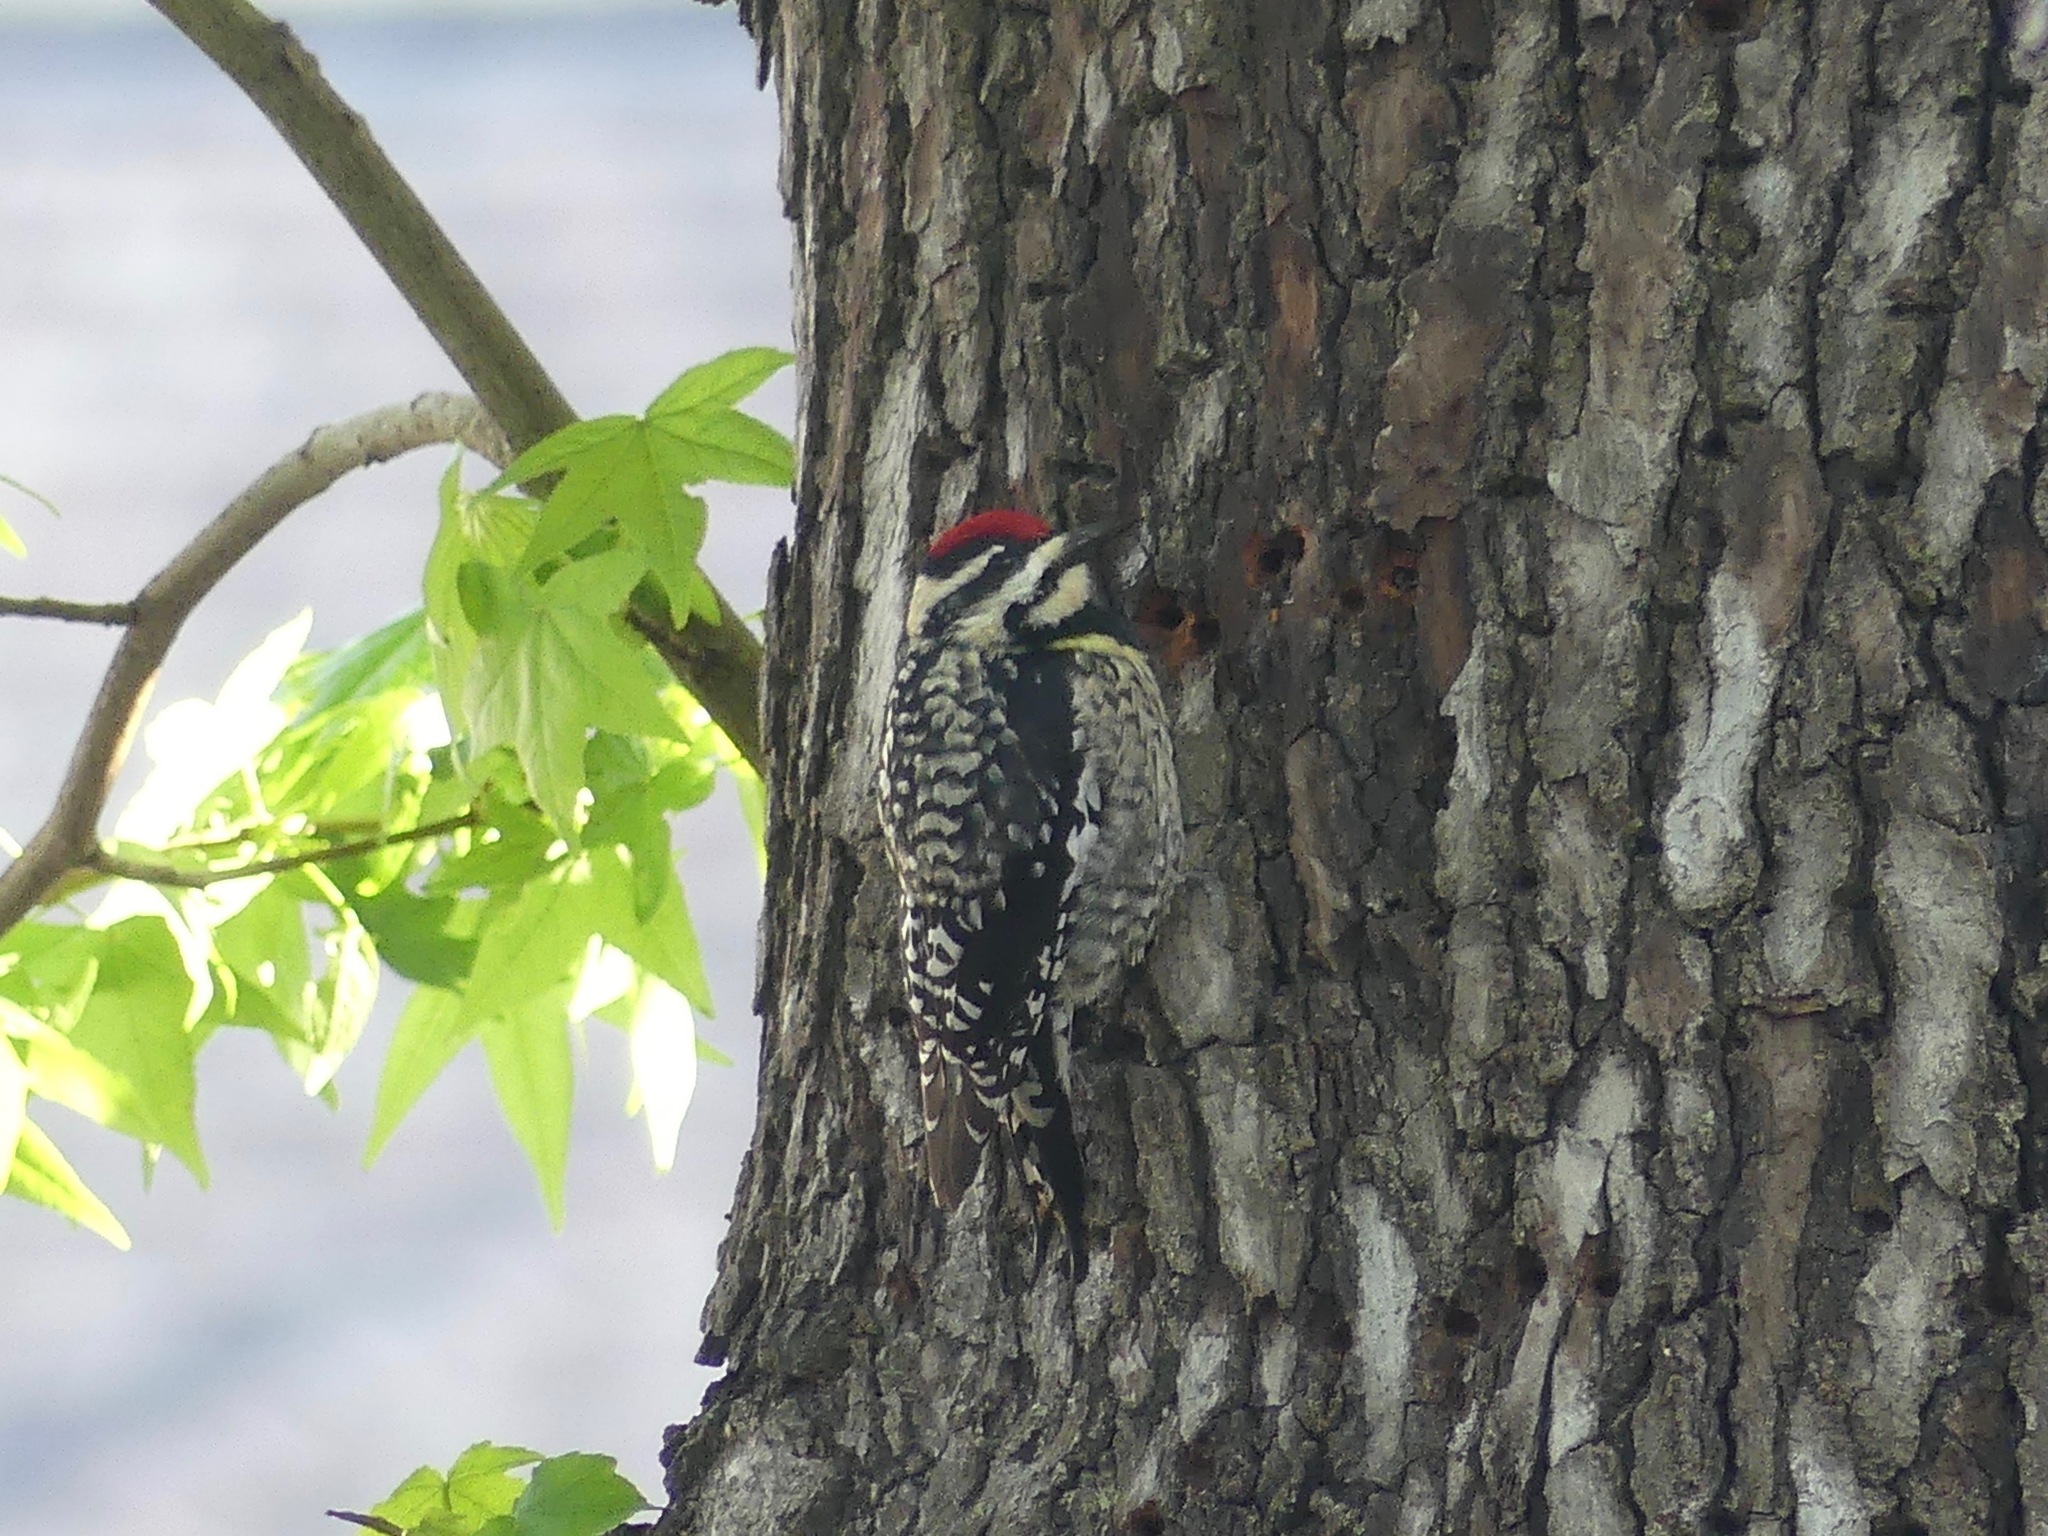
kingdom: Animalia
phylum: Chordata
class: Aves
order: Piciformes
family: Picidae
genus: Sphyrapicus
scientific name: Sphyrapicus varius
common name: Yellow-bellied sapsucker
